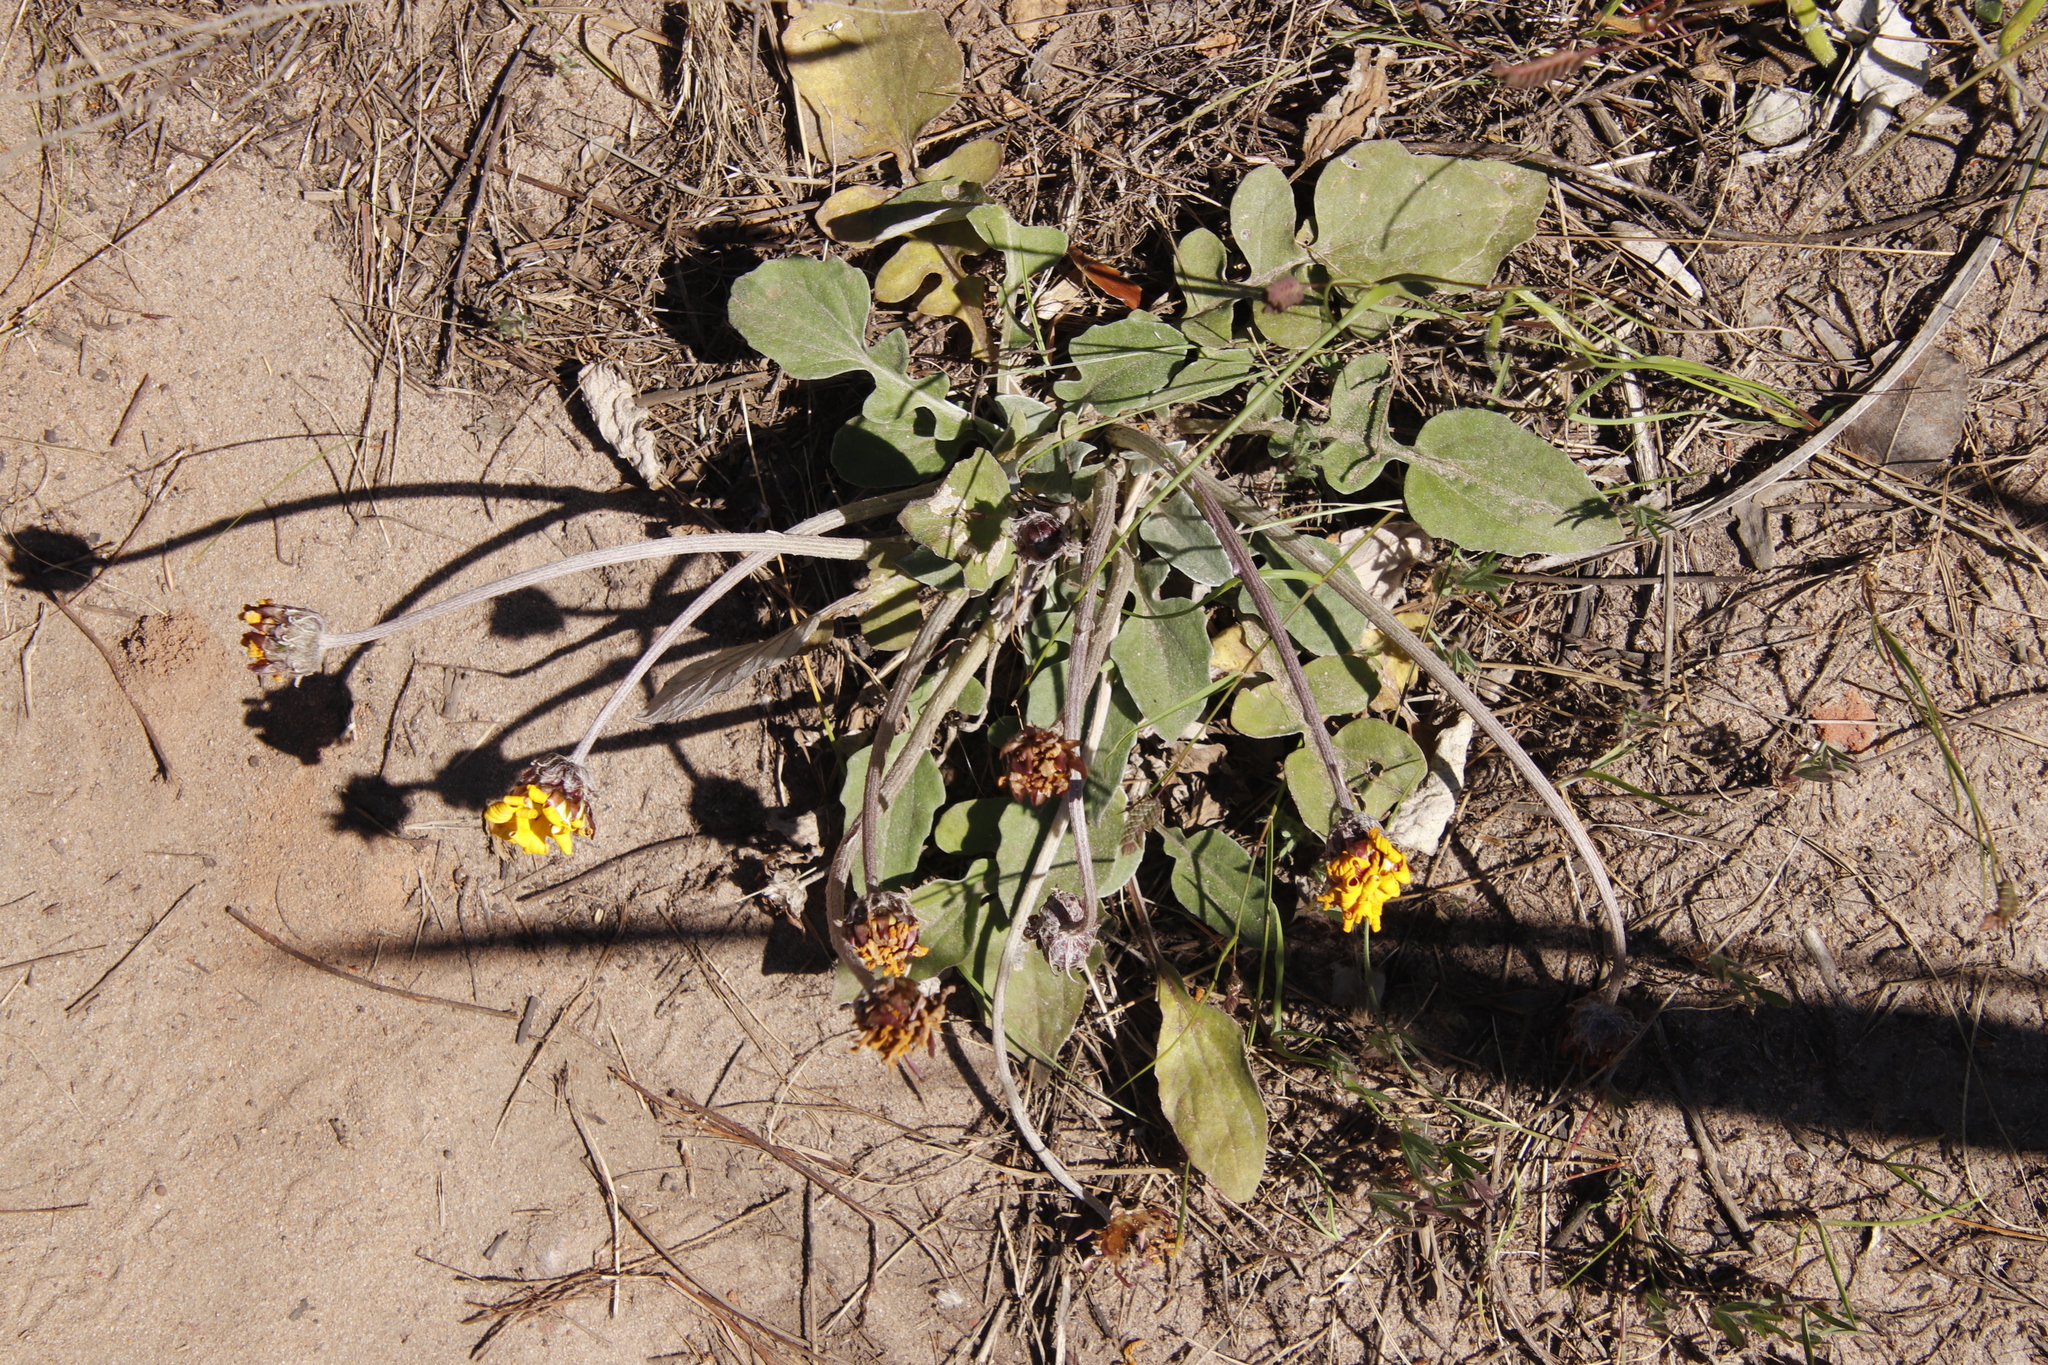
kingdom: Plantae
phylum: Tracheophyta
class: Magnoliopsida
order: Asterales
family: Asteraceae
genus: Arctotis
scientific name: Arctotis acaulis
